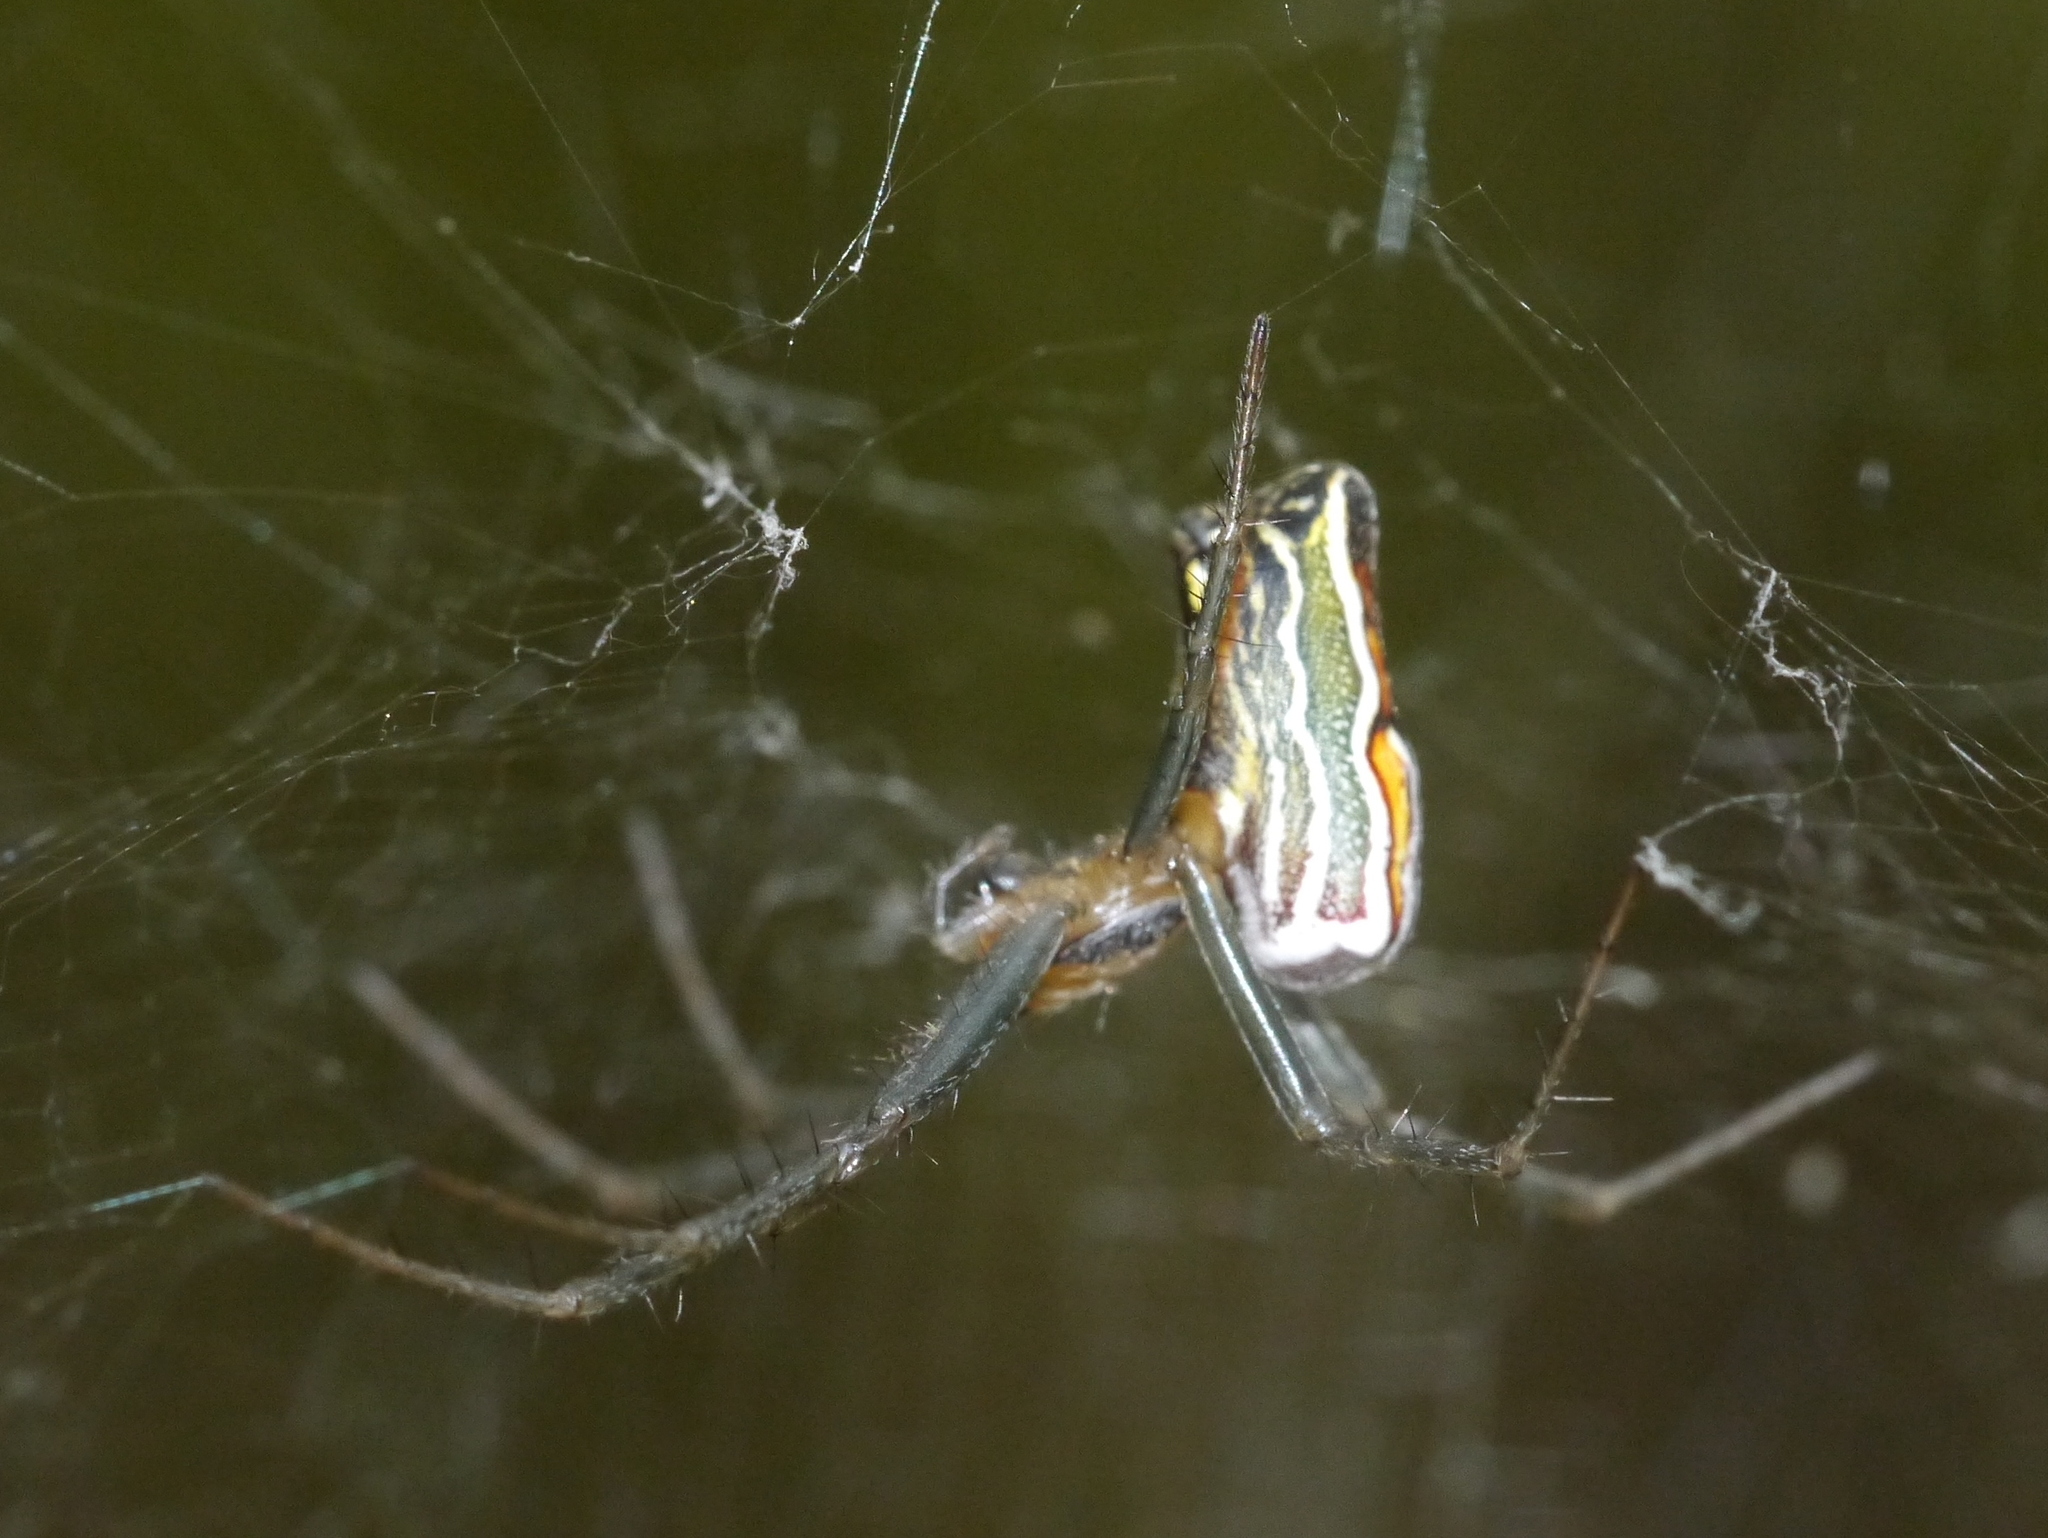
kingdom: Animalia
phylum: Arthropoda
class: Arachnida
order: Araneae
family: Araneidae
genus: Mecynogea
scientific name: Mecynogea lemniscata
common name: Orb weavers
